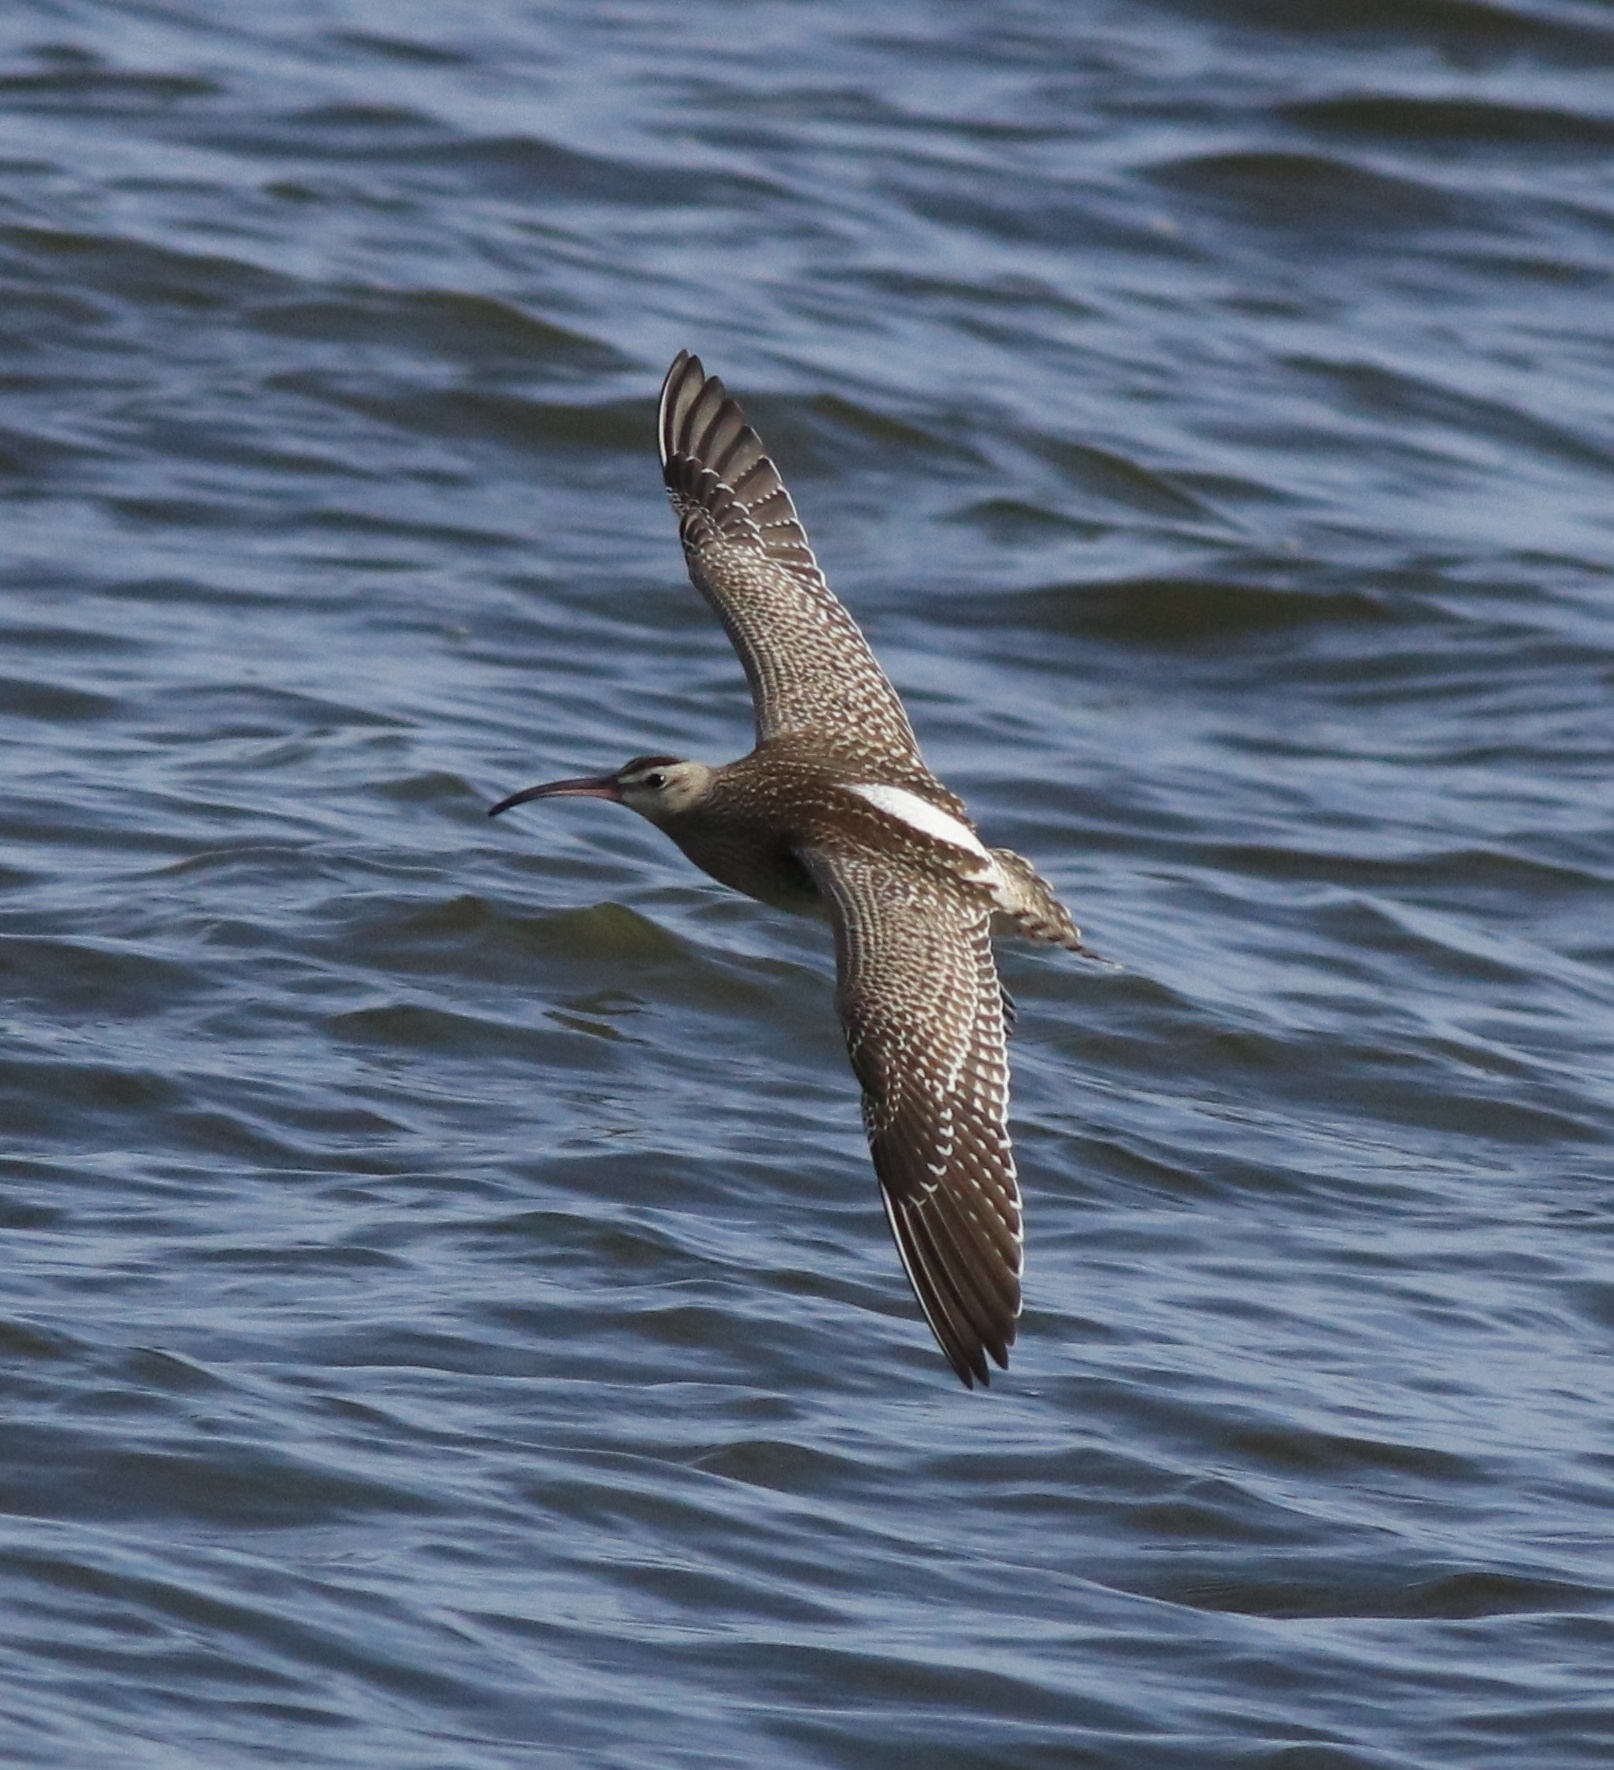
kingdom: Animalia
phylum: Chordata
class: Aves
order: Charadriiformes
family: Scolopacidae
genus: Numenius
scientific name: Numenius phaeopus
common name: Whimbrel
